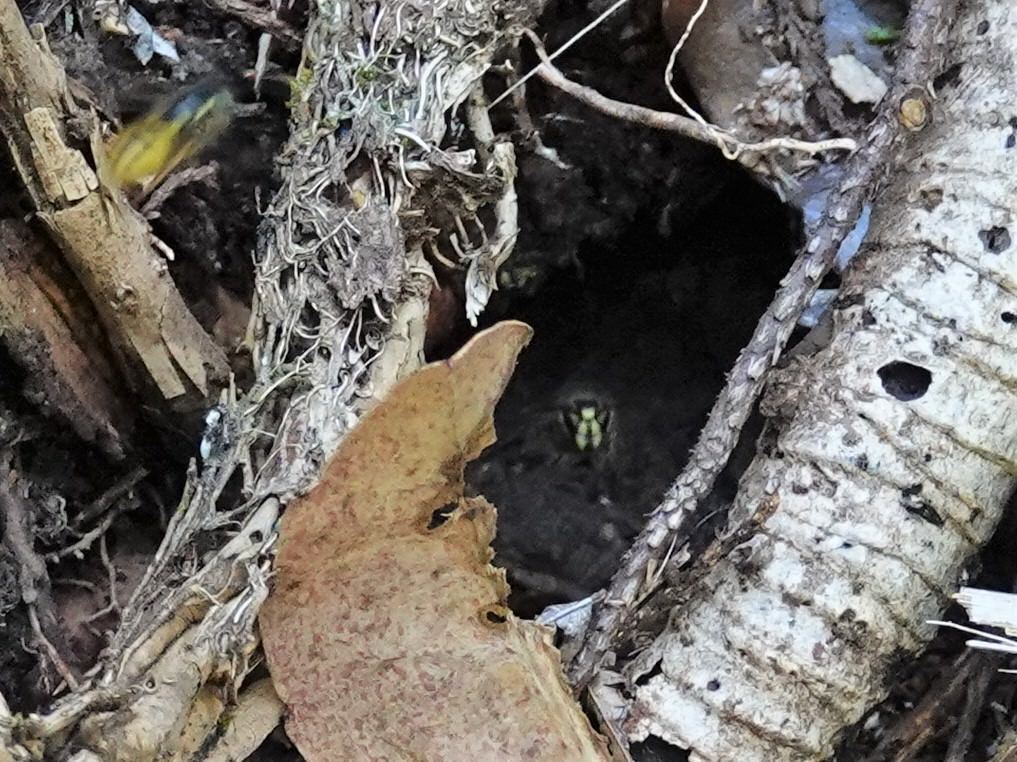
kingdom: Animalia
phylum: Arthropoda
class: Insecta
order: Hymenoptera
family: Vespidae
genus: Vespula
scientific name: Vespula vulgaris
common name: Common wasp
